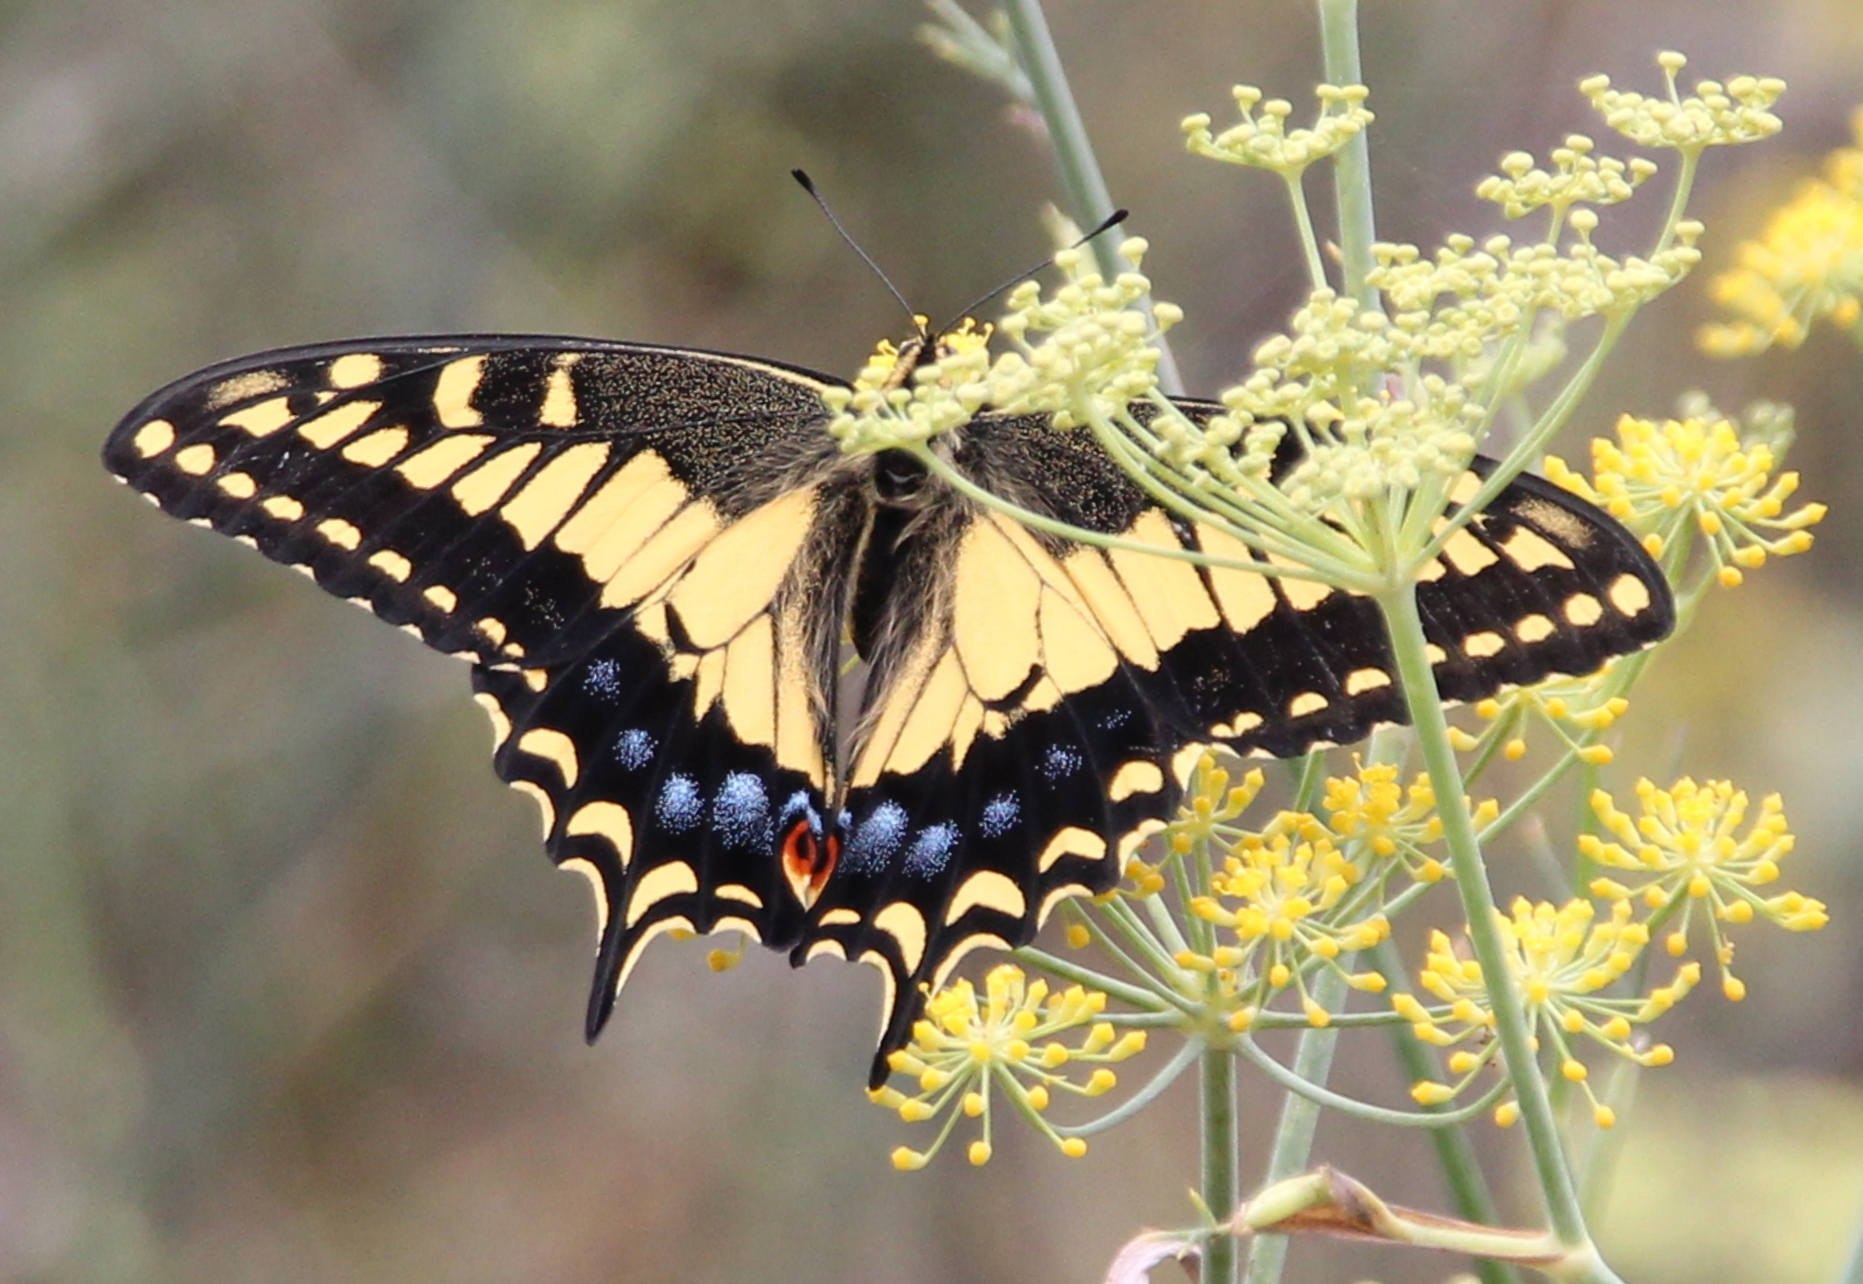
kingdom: Animalia
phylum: Arthropoda
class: Insecta
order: Lepidoptera
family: Papilionidae
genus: Papilio
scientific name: Papilio zelicaon
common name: Anise swallowtail
